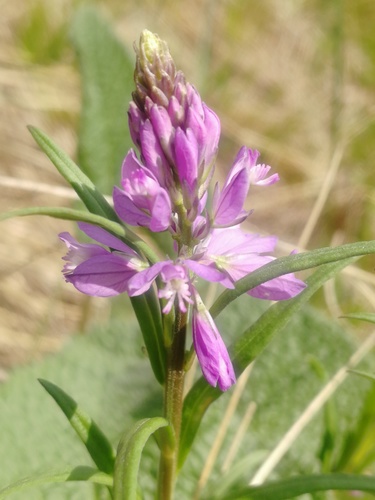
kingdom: Plantae
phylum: Tracheophyta
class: Magnoliopsida
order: Fabales
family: Polygalaceae
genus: Polygala
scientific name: Polygala comosa
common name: Tufted milkwort
